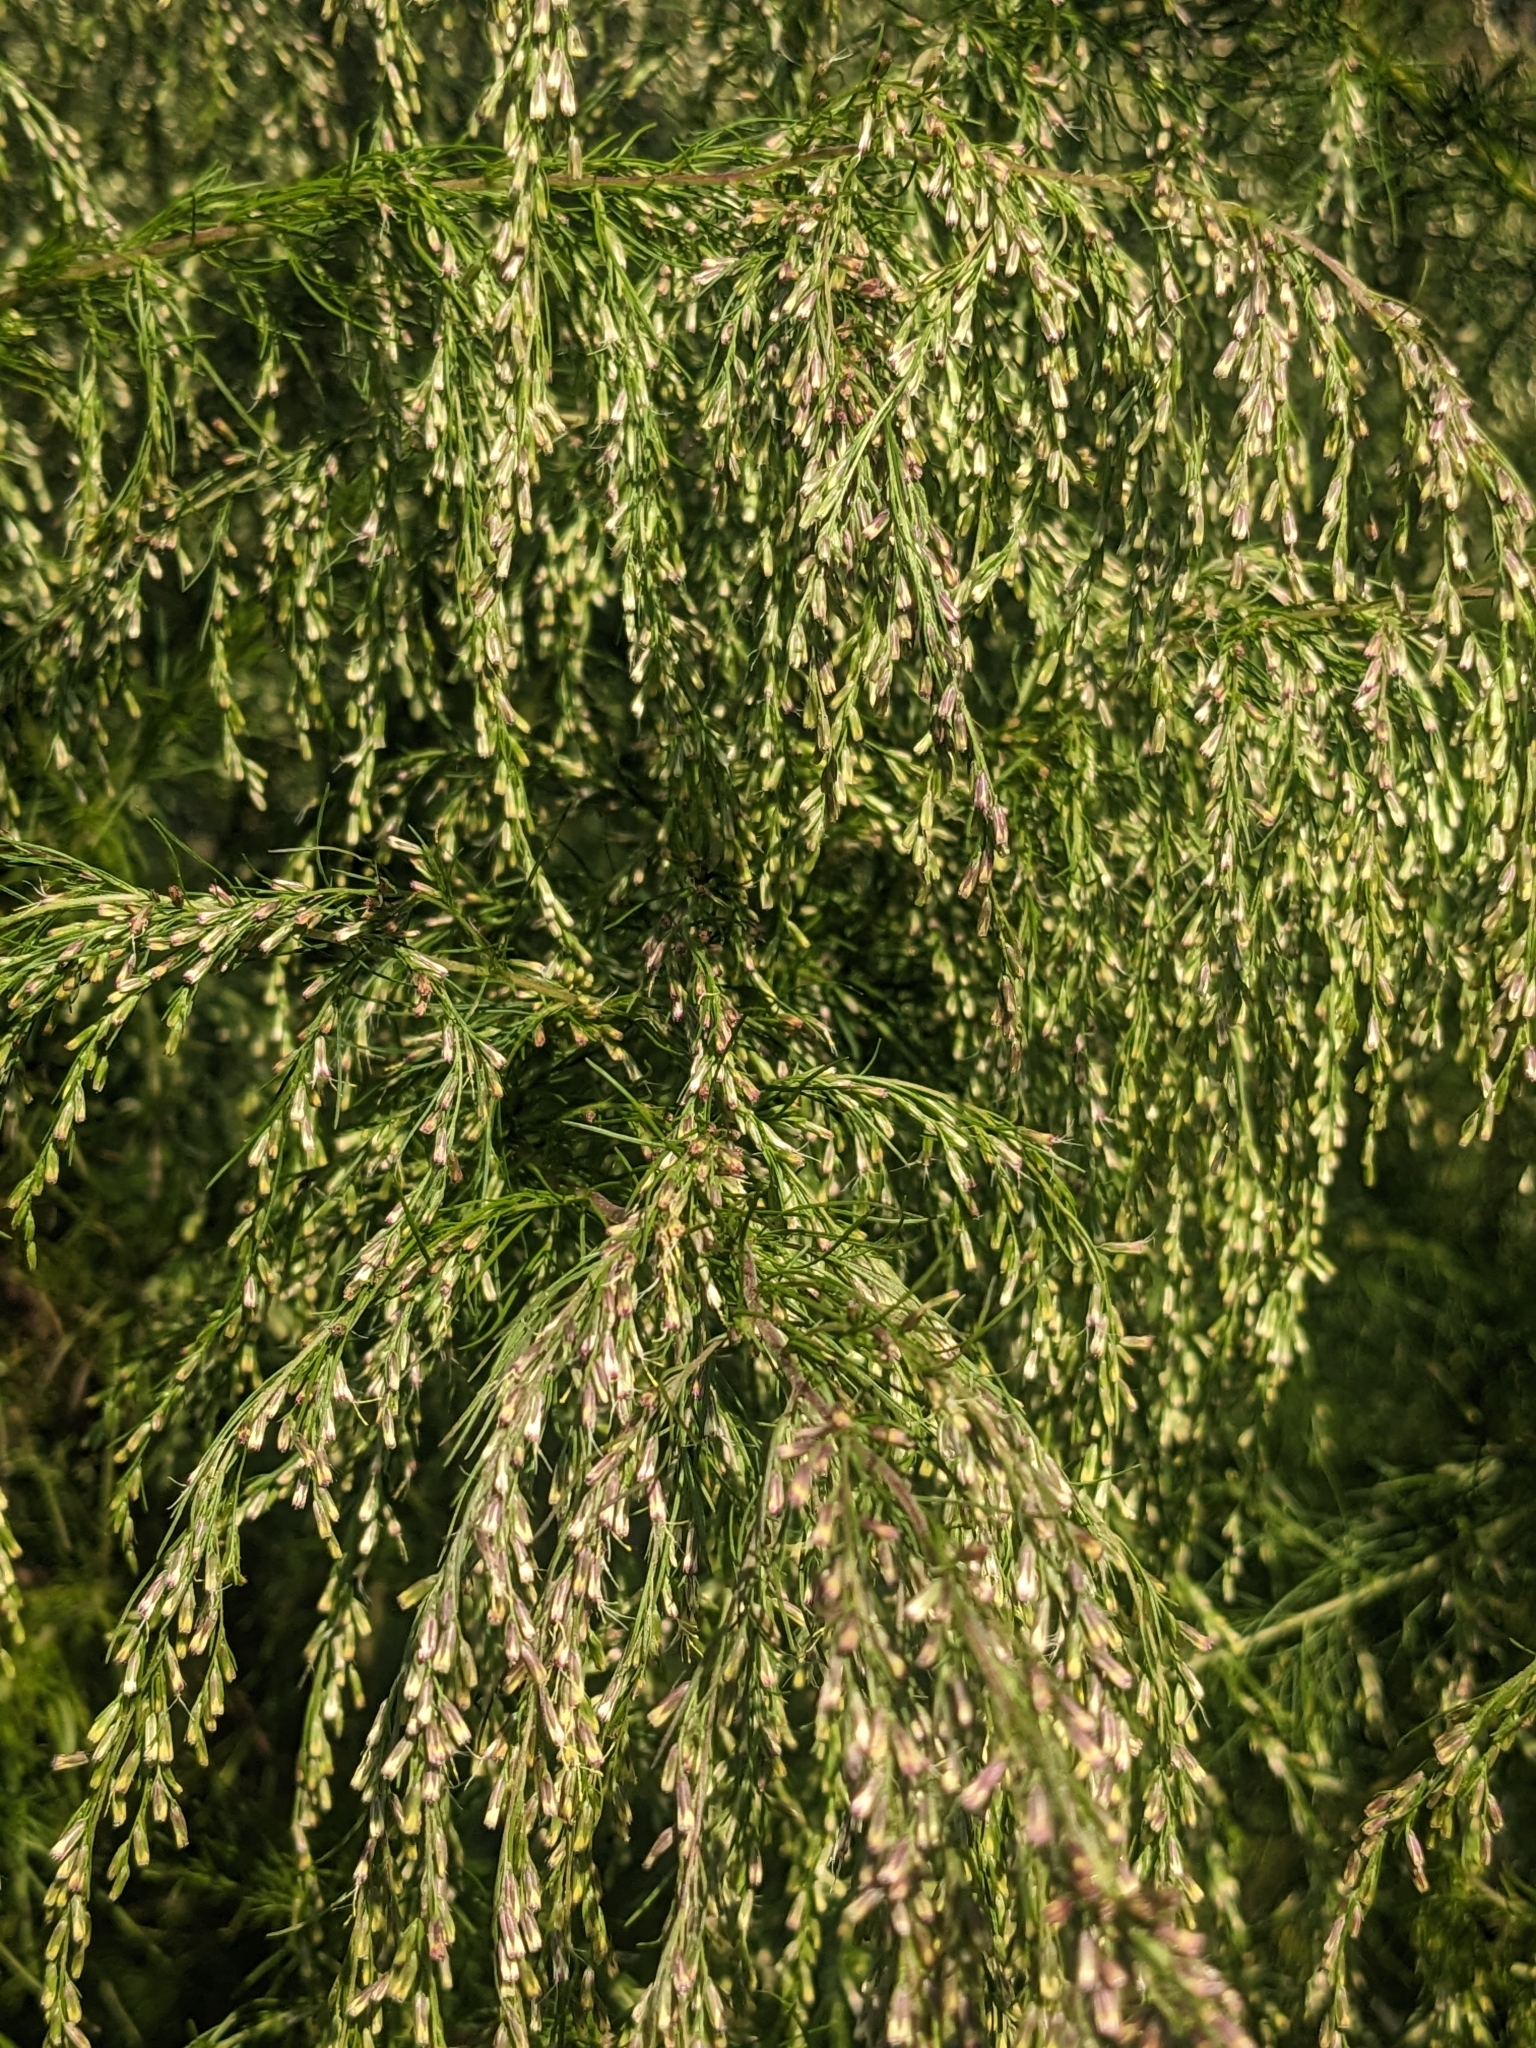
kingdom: Plantae
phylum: Tracheophyta
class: Magnoliopsida
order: Asterales
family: Asteraceae
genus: Eupatorium
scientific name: Eupatorium capillifolium
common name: Dog-fennel
